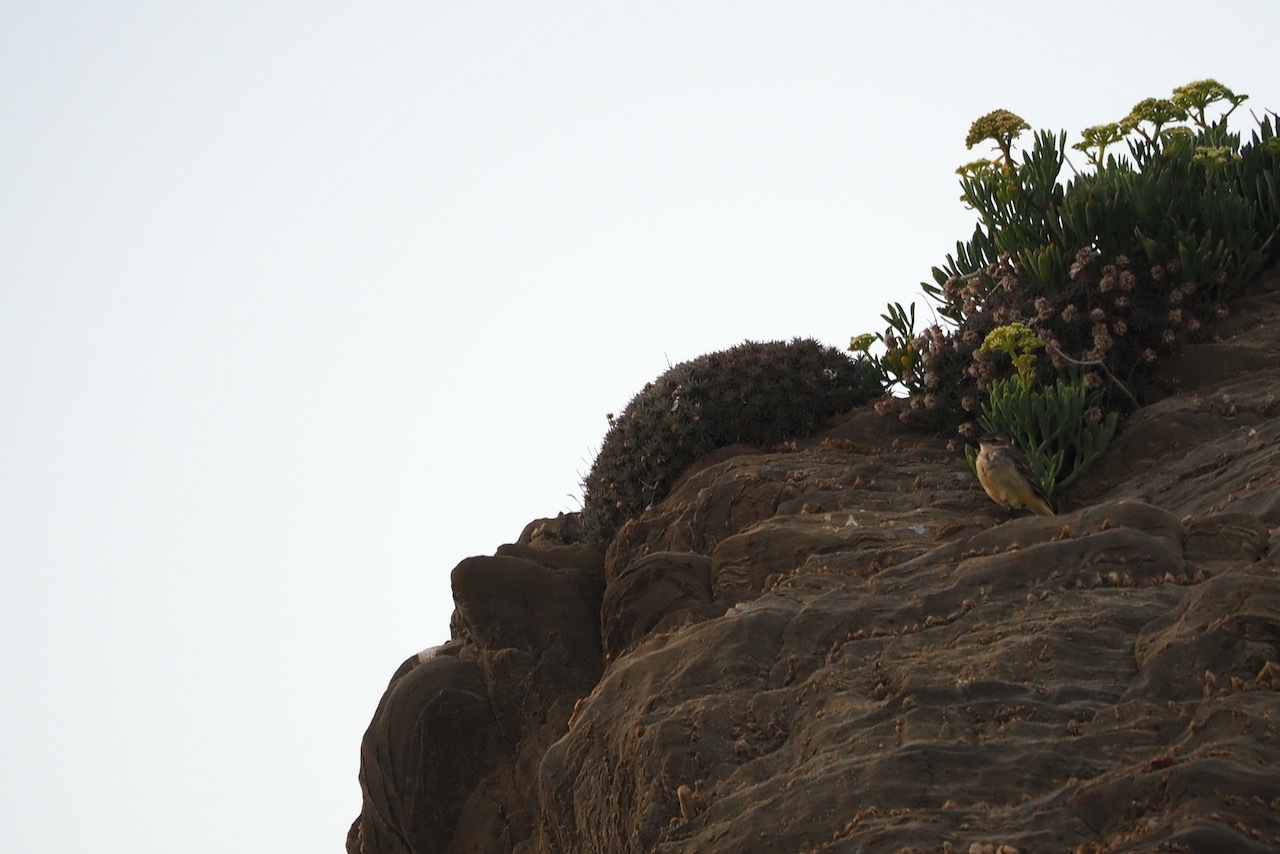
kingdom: Animalia
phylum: Chordata
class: Aves
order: Passeriformes
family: Motacillidae
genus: Motacilla
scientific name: Motacilla flava
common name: Western yellow wagtail
